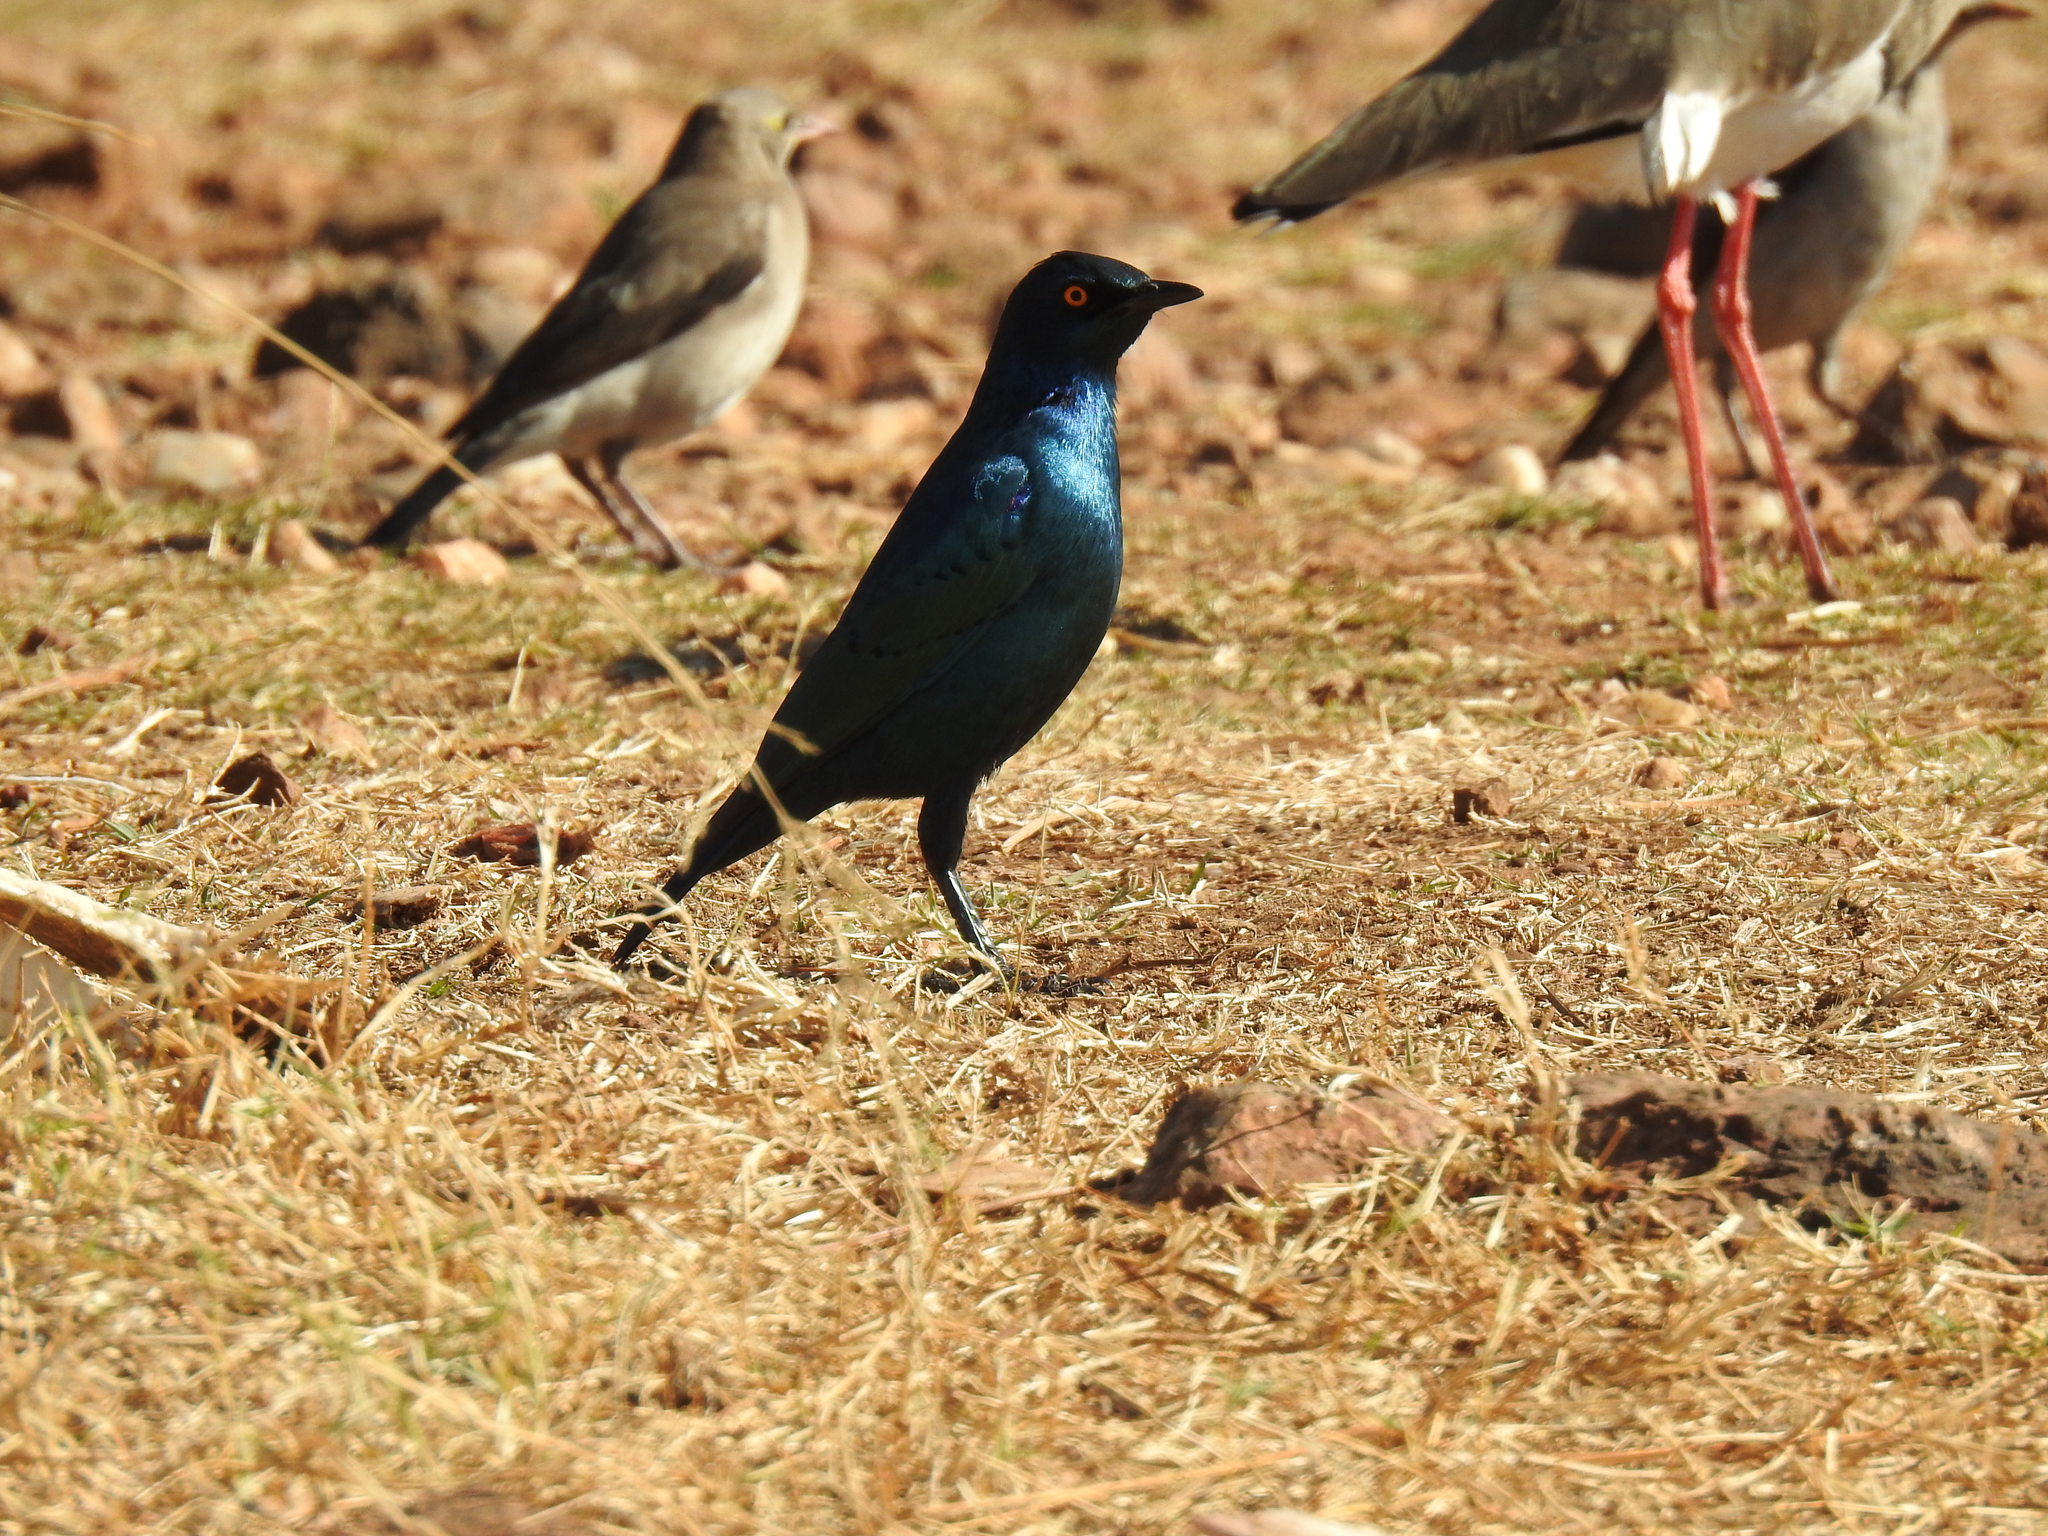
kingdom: Animalia
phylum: Chordata
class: Aves
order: Passeriformes
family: Sturnidae
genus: Lamprotornis
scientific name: Lamprotornis nitens
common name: Cape starling
